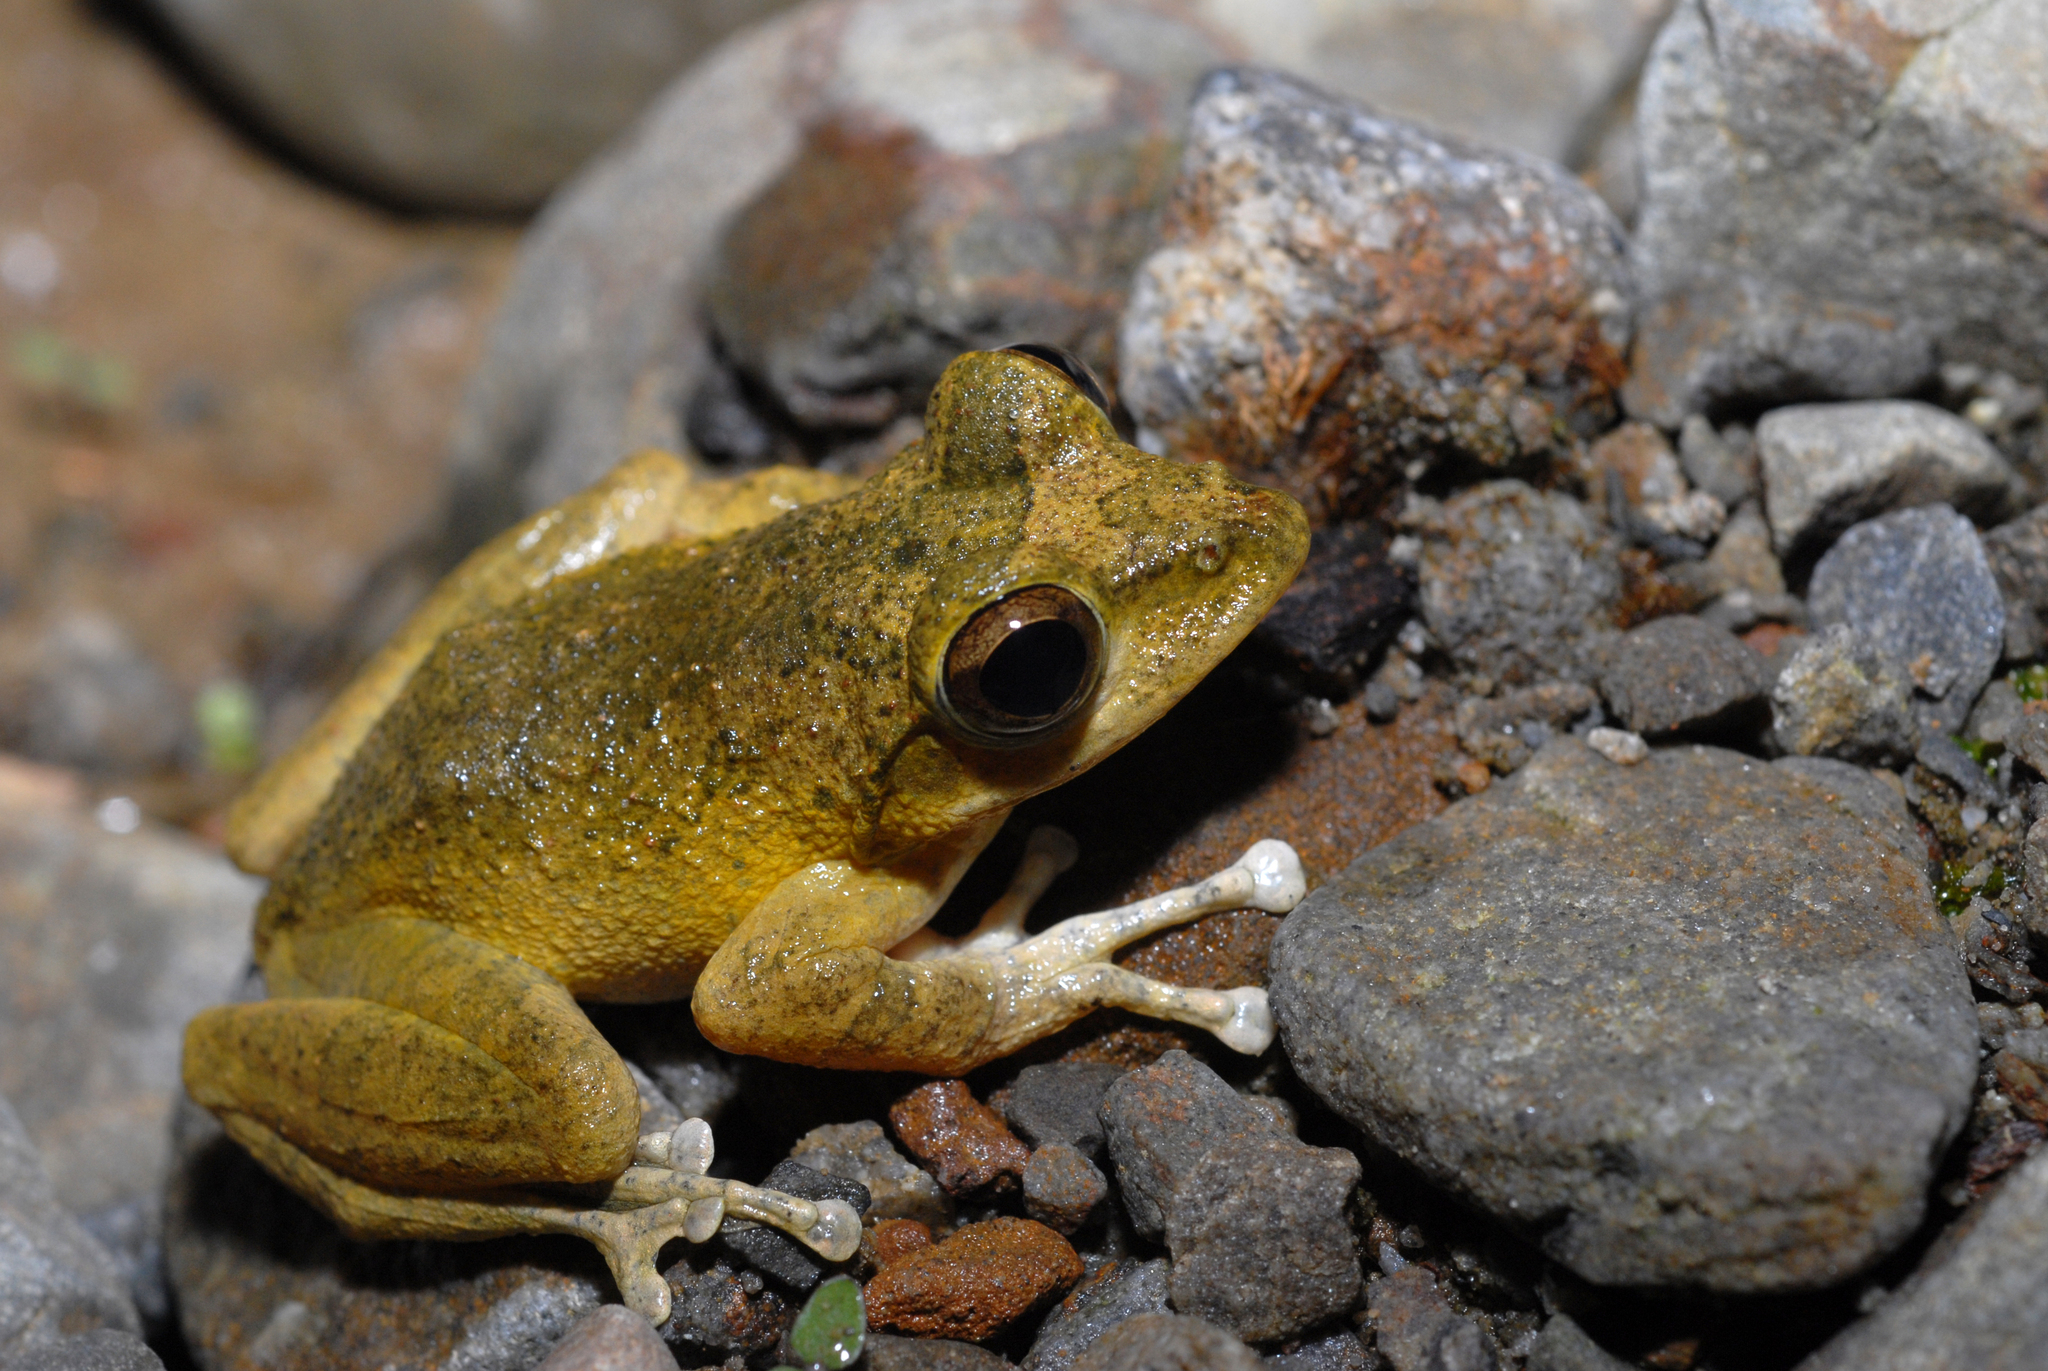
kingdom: Animalia
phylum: Chordata
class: Amphibia
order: Anura
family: Rhacophoridae
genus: Buergeria
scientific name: Buergeria robusta
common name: Brown treefrog
